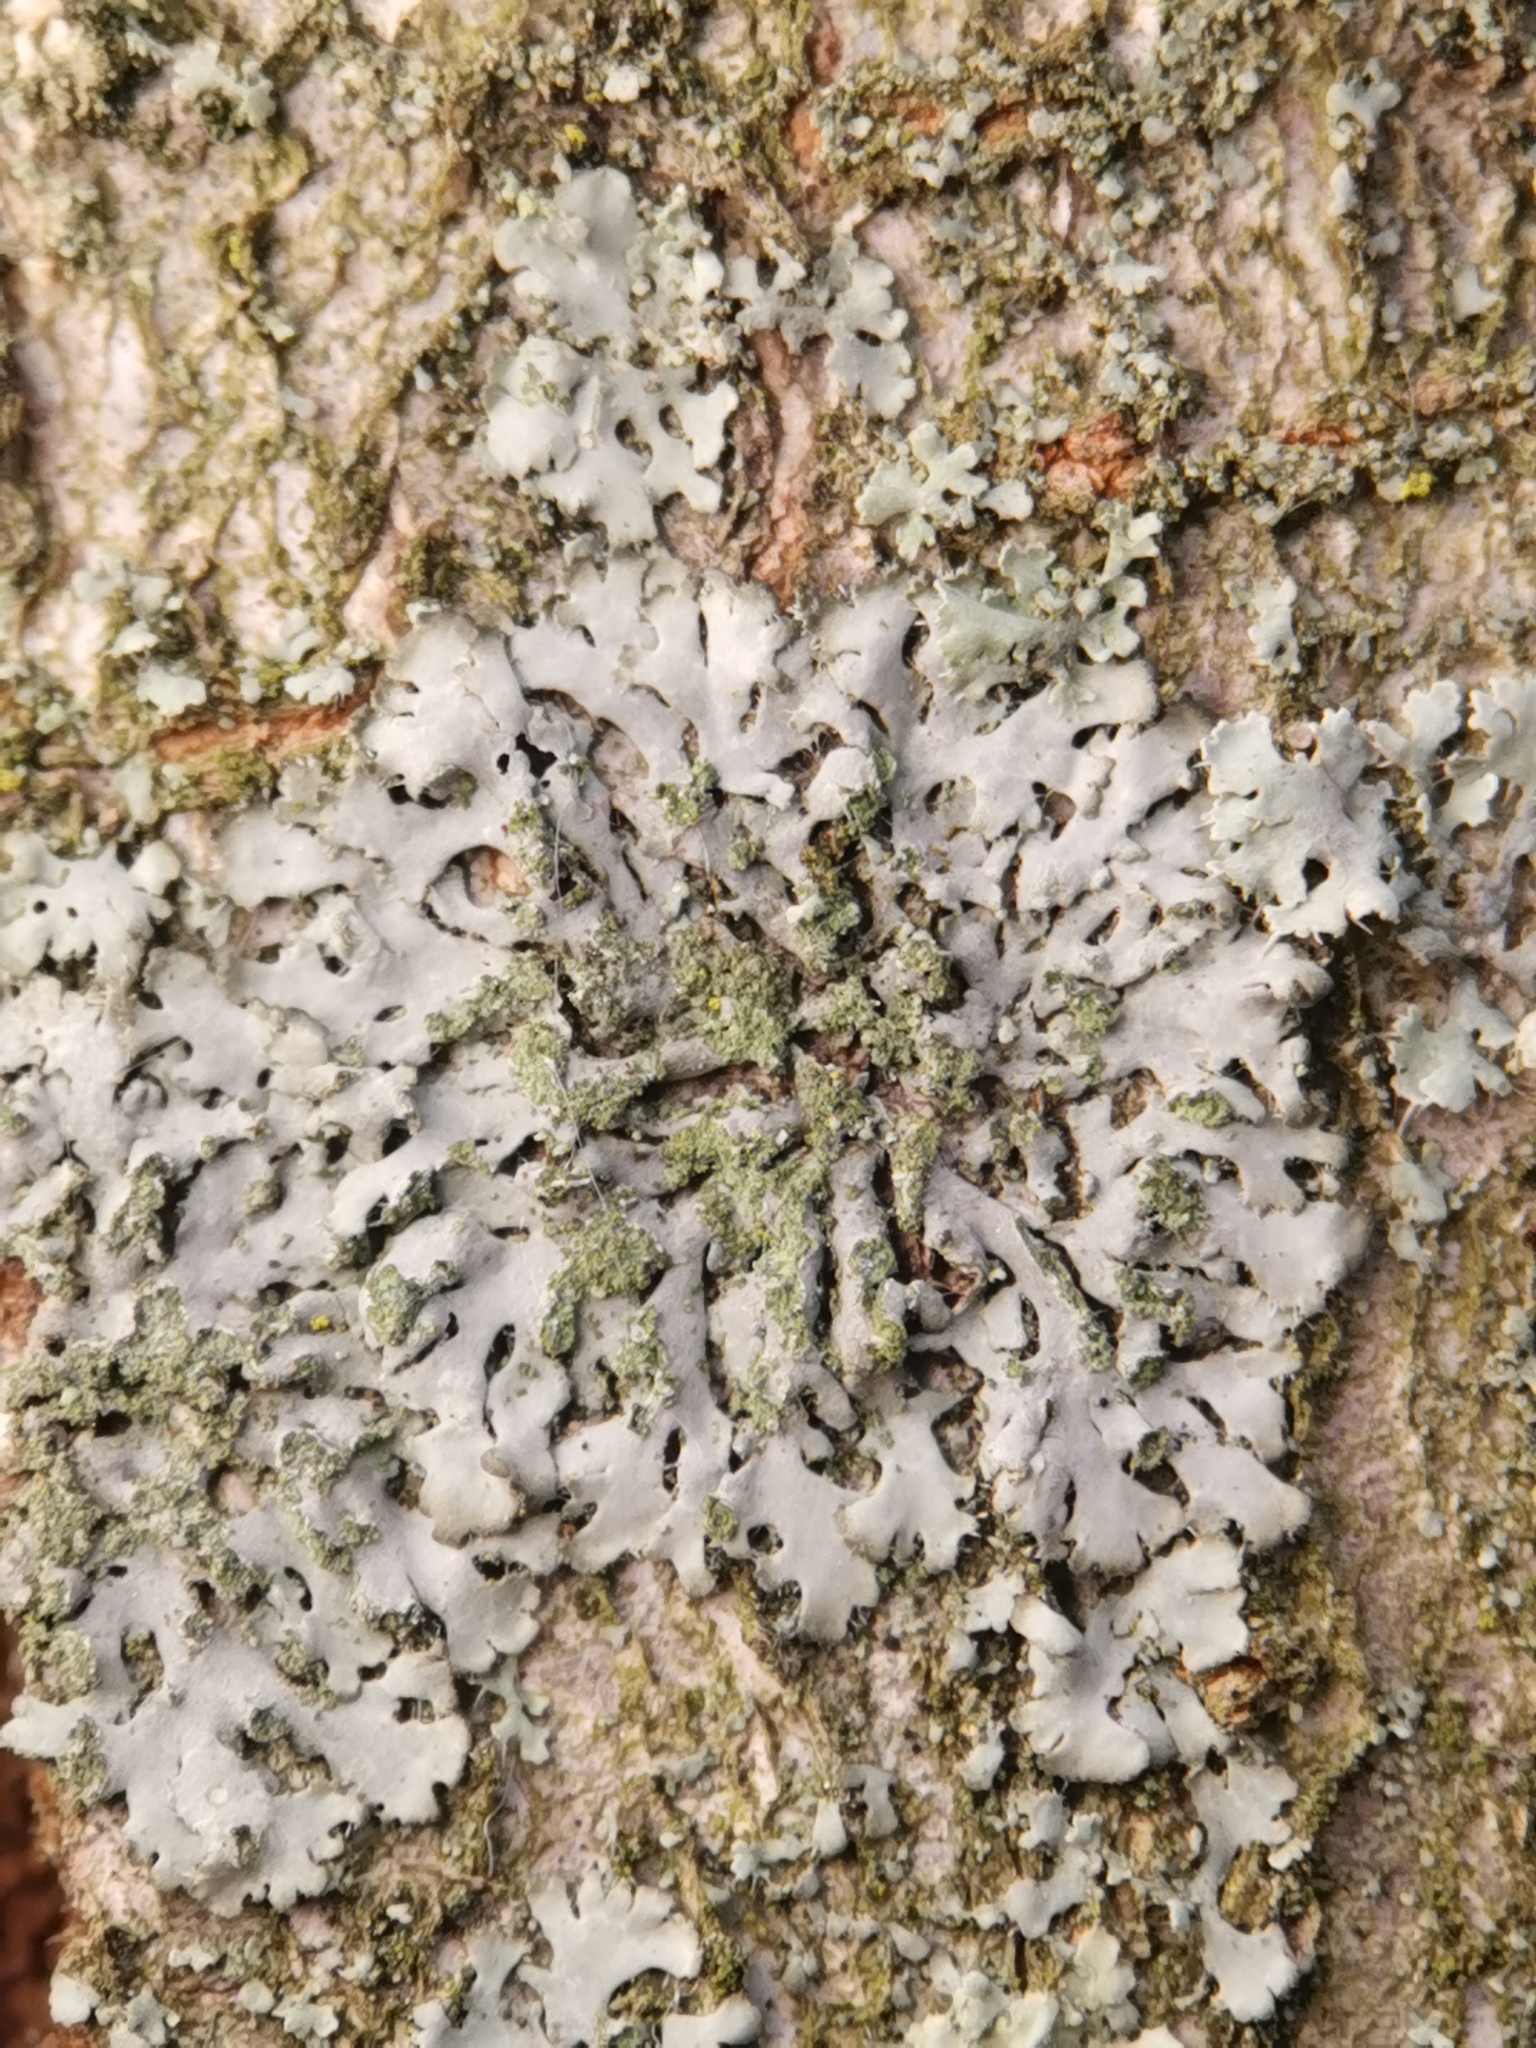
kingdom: Fungi
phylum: Ascomycota
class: Lecanoromycetes
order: Caliciales
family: Physciaceae
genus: Phaeophyscia
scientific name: Phaeophyscia orbicularis
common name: Mealy shadow lichen
